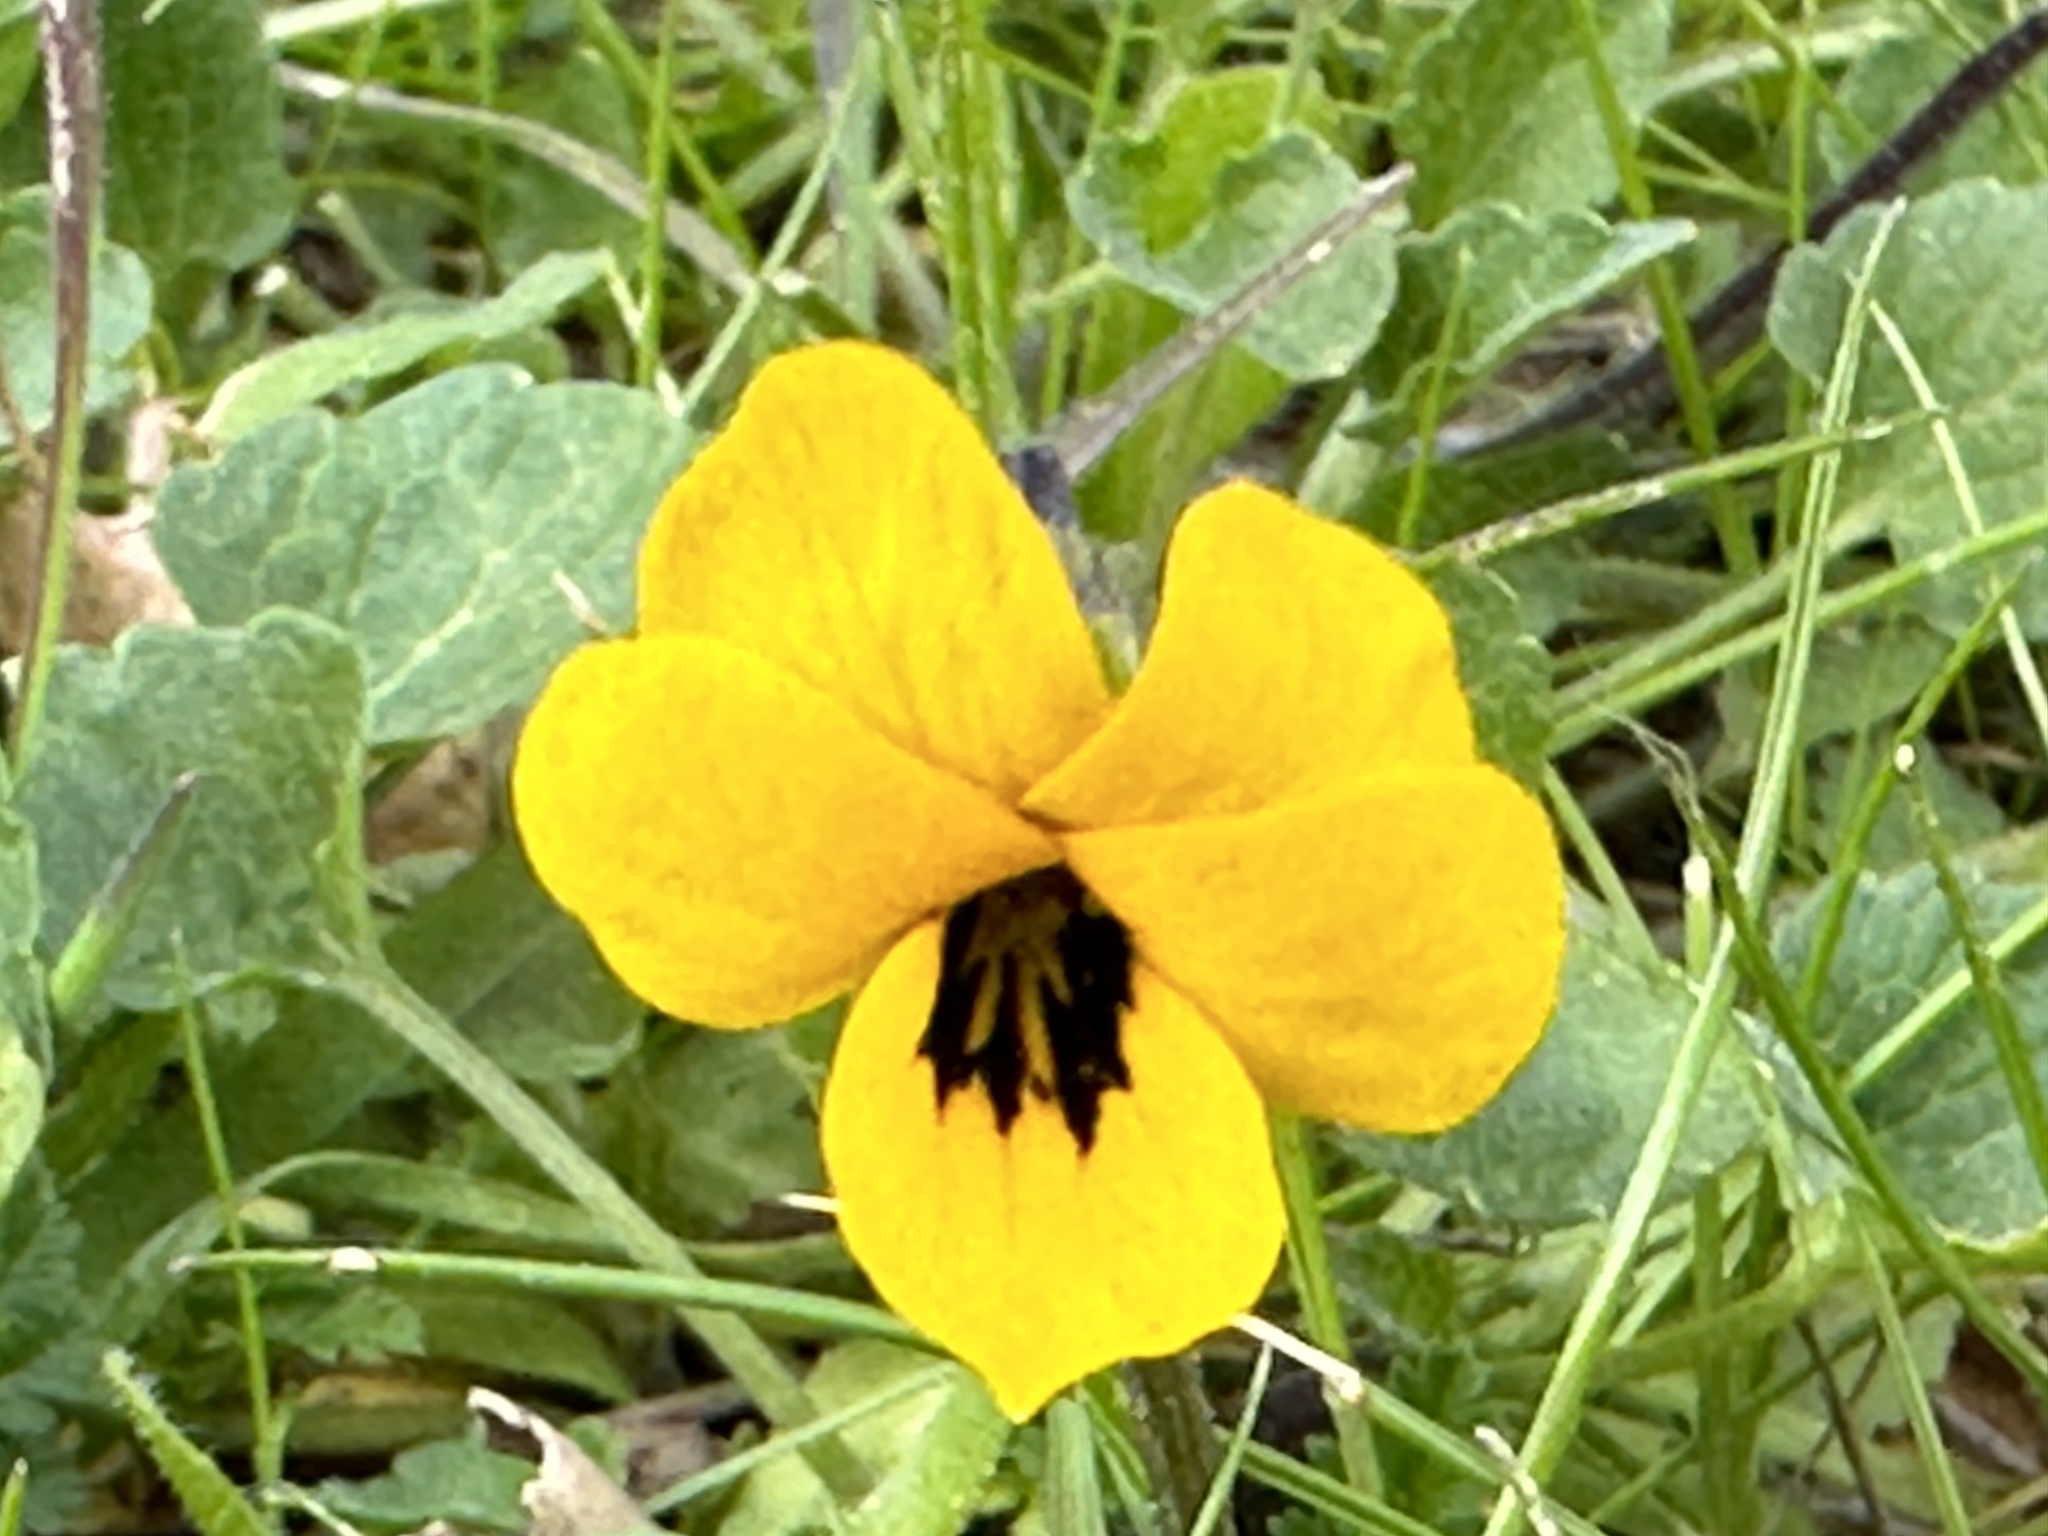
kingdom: Plantae
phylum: Tracheophyta
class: Magnoliopsida
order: Malpighiales
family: Violaceae
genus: Viola
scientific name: Viola pedunculata
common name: California golden violet
